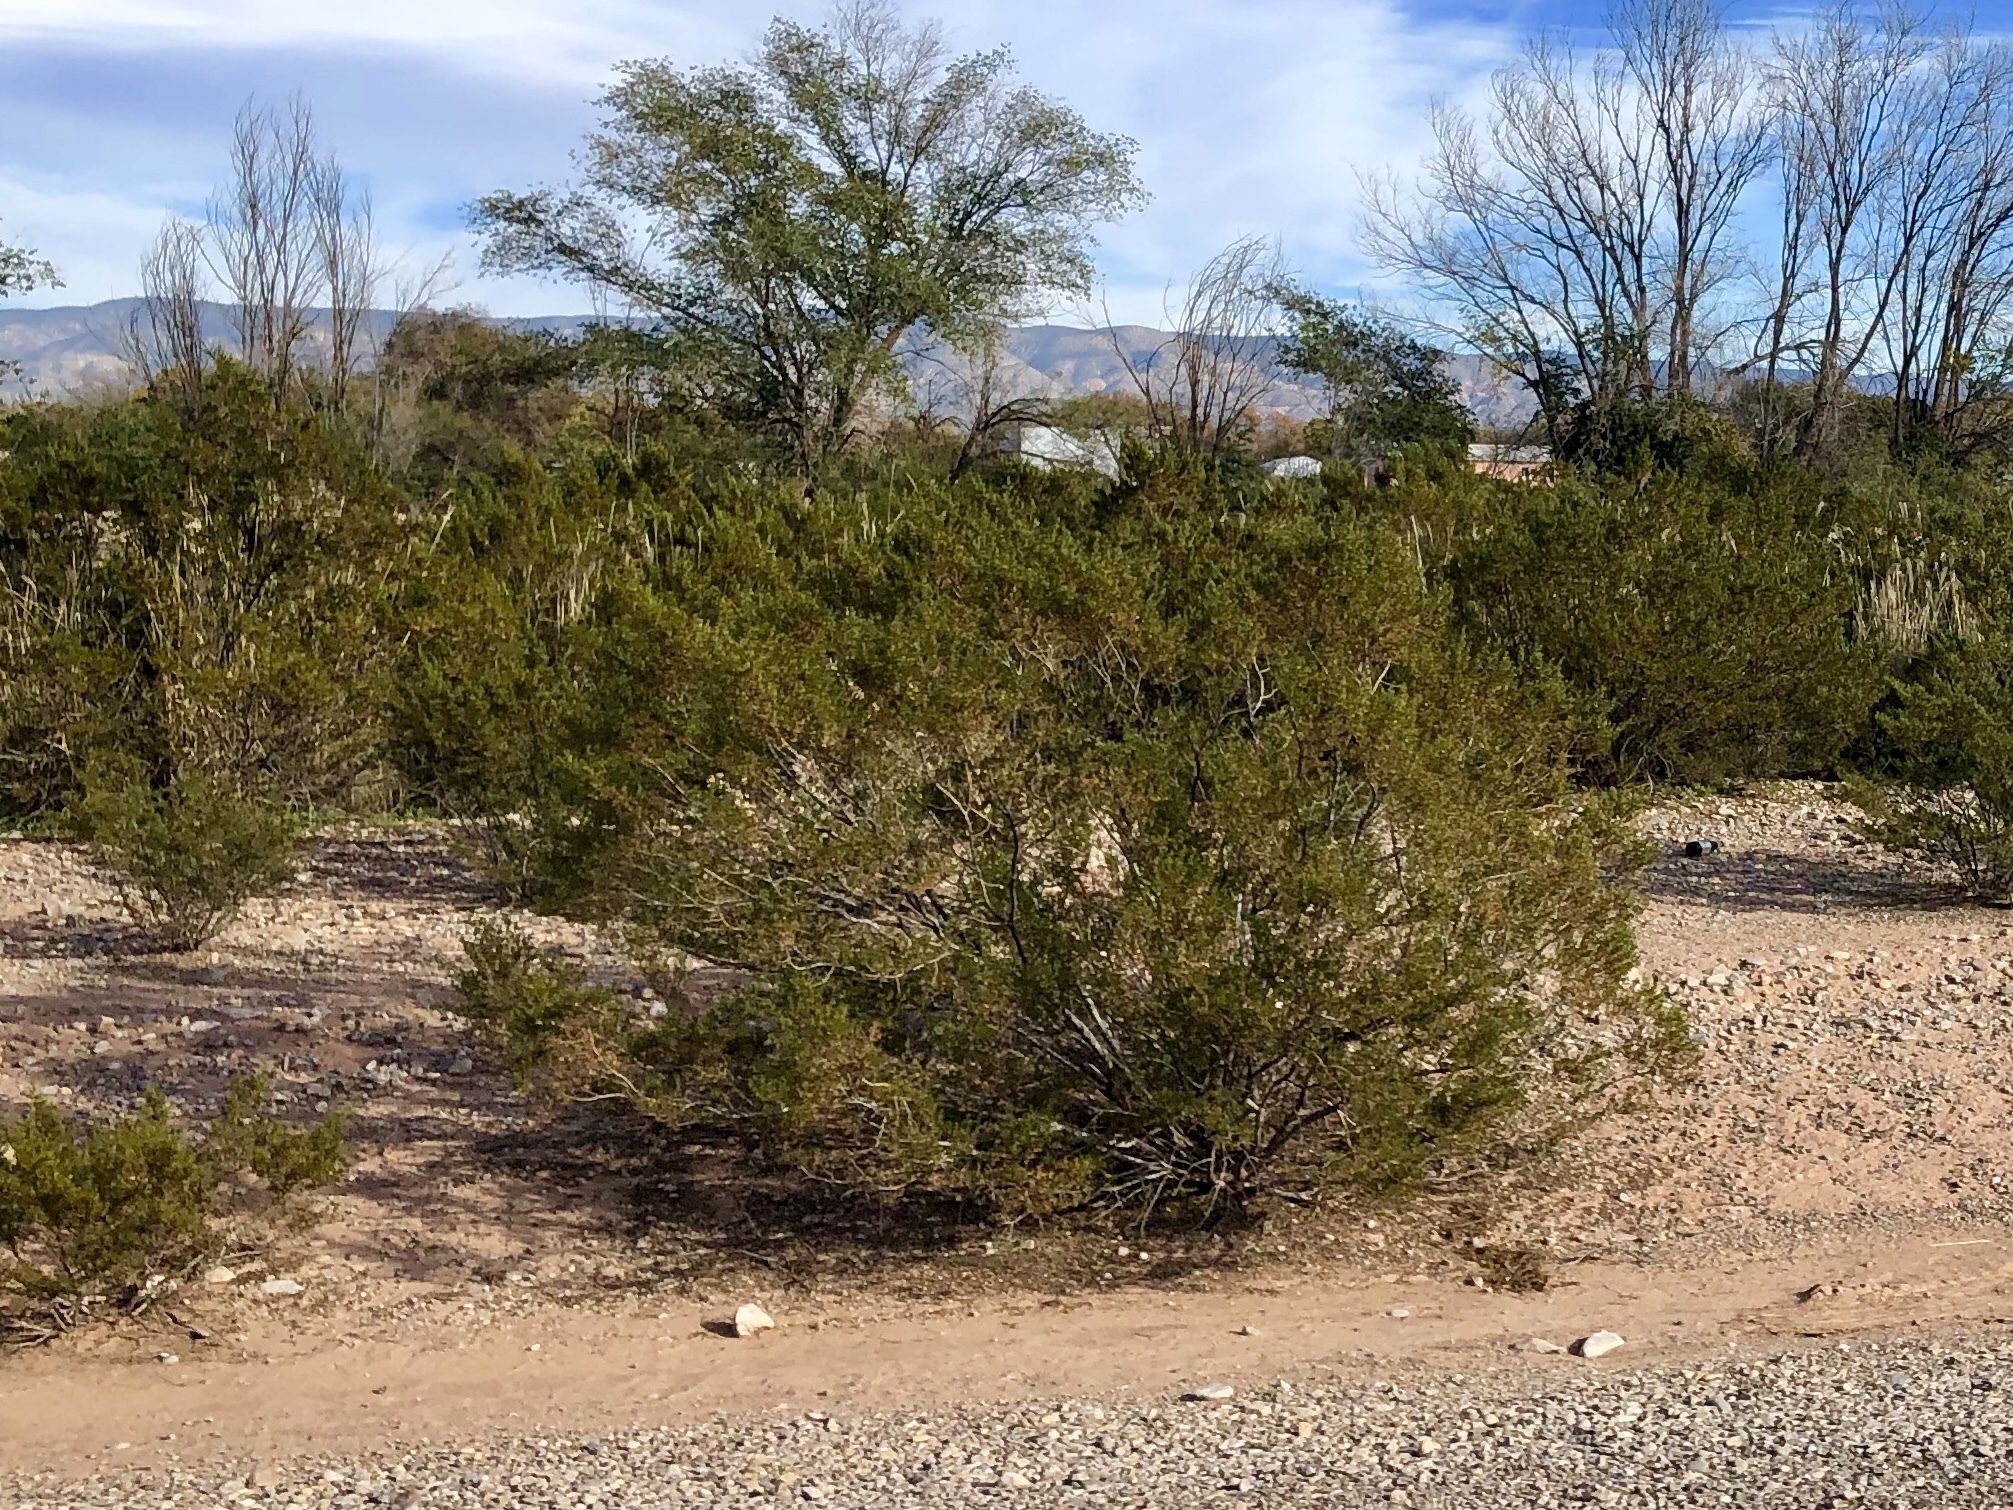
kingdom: Plantae
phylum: Tracheophyta
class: Magnoliopsida
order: Zygophyllales
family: Zygophyllaceae
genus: Larrea
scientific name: Larrea tridentata
